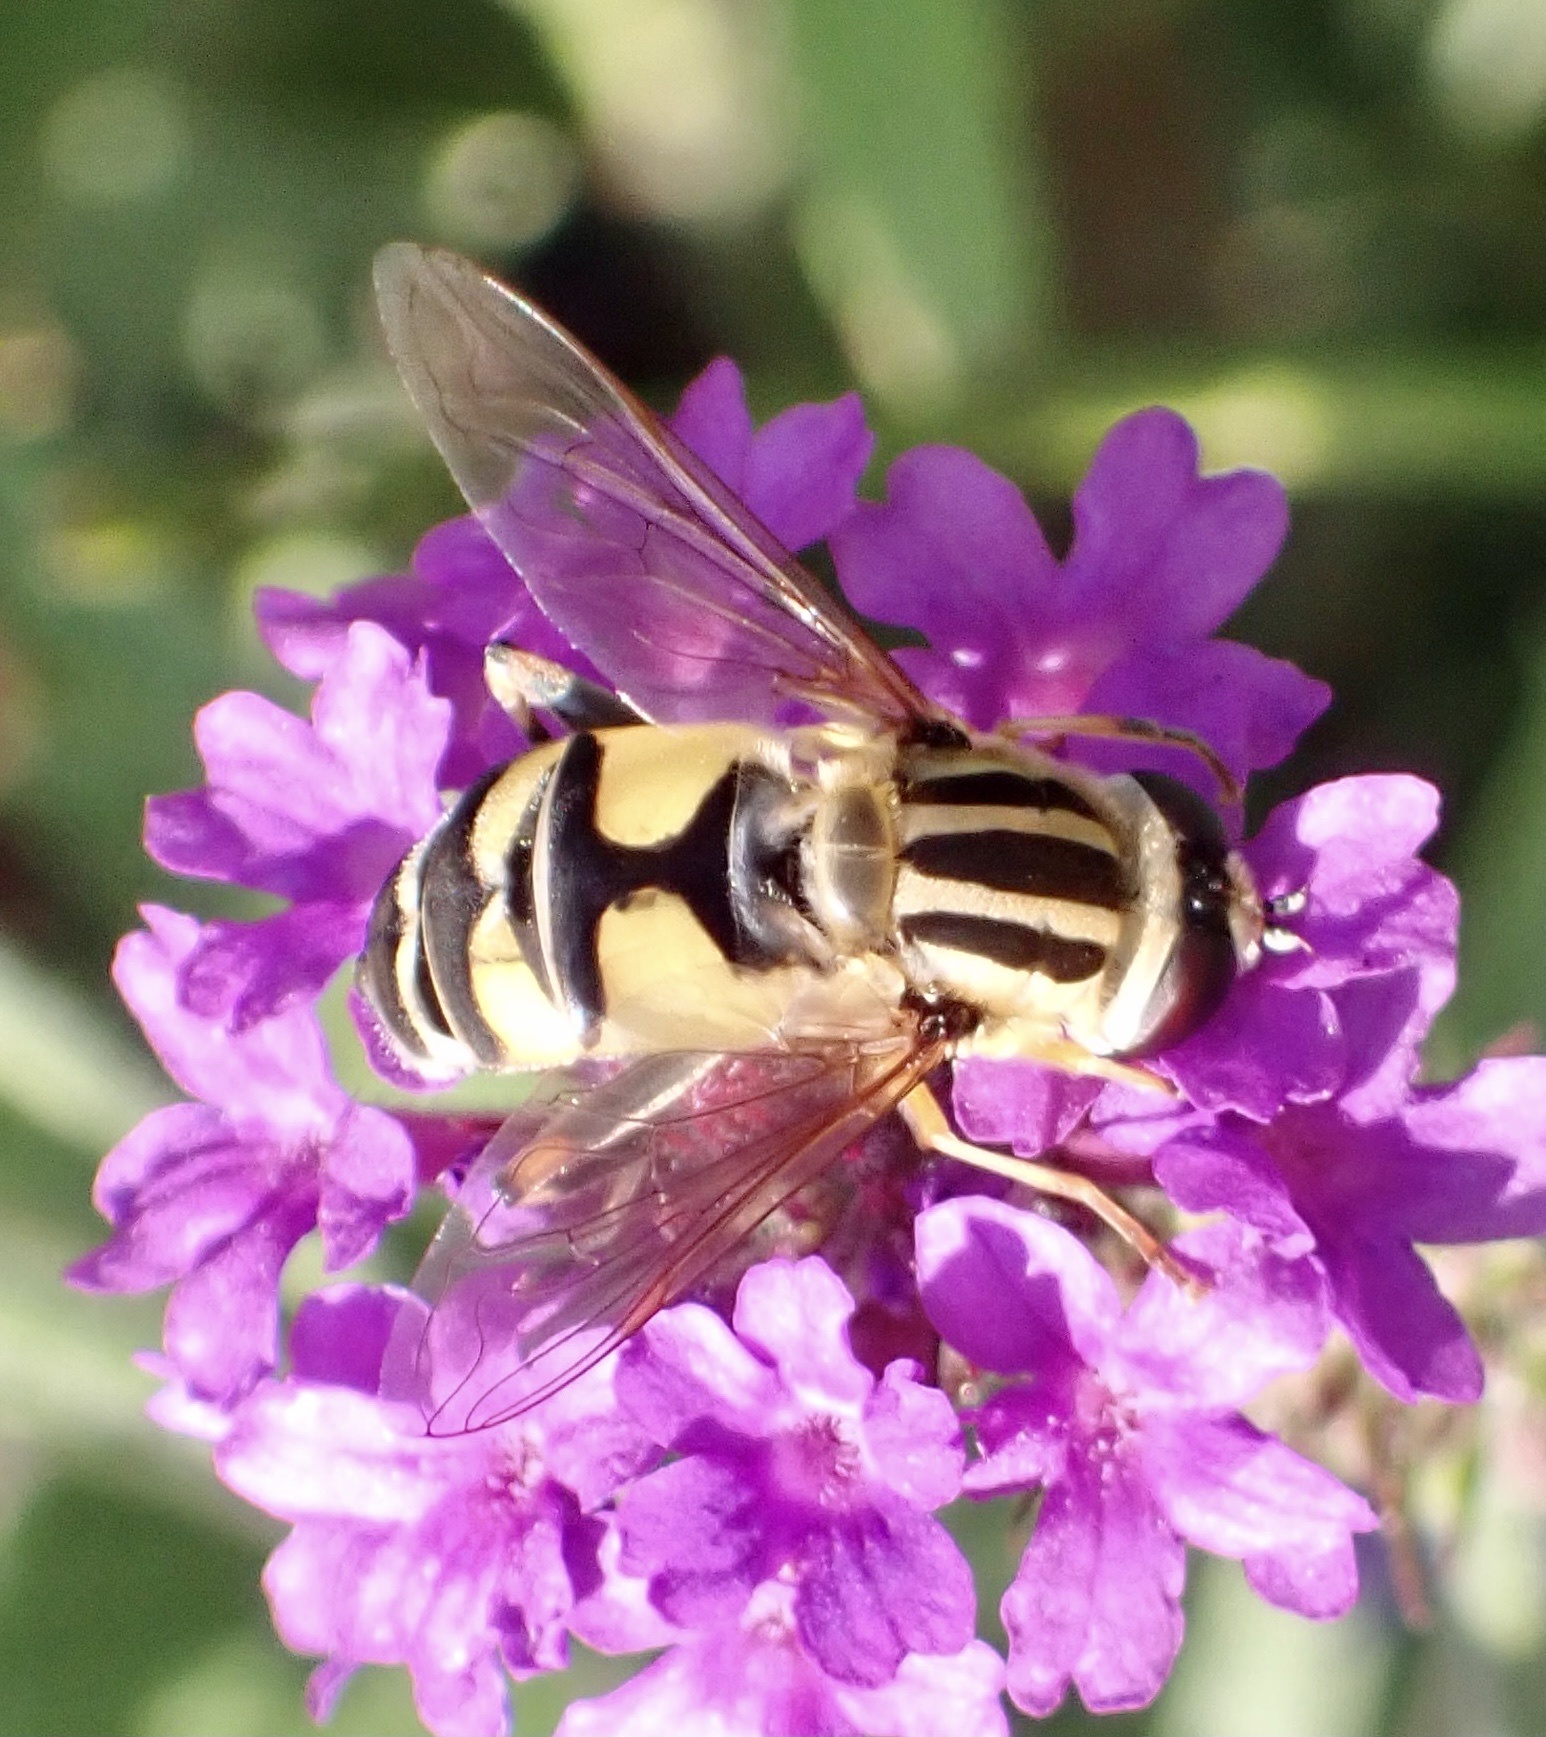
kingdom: Animalia
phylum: Arthropoda
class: Insecta
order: Diptera
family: Syrphidae
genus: Helophilus
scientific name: Helophilus trivittatus
